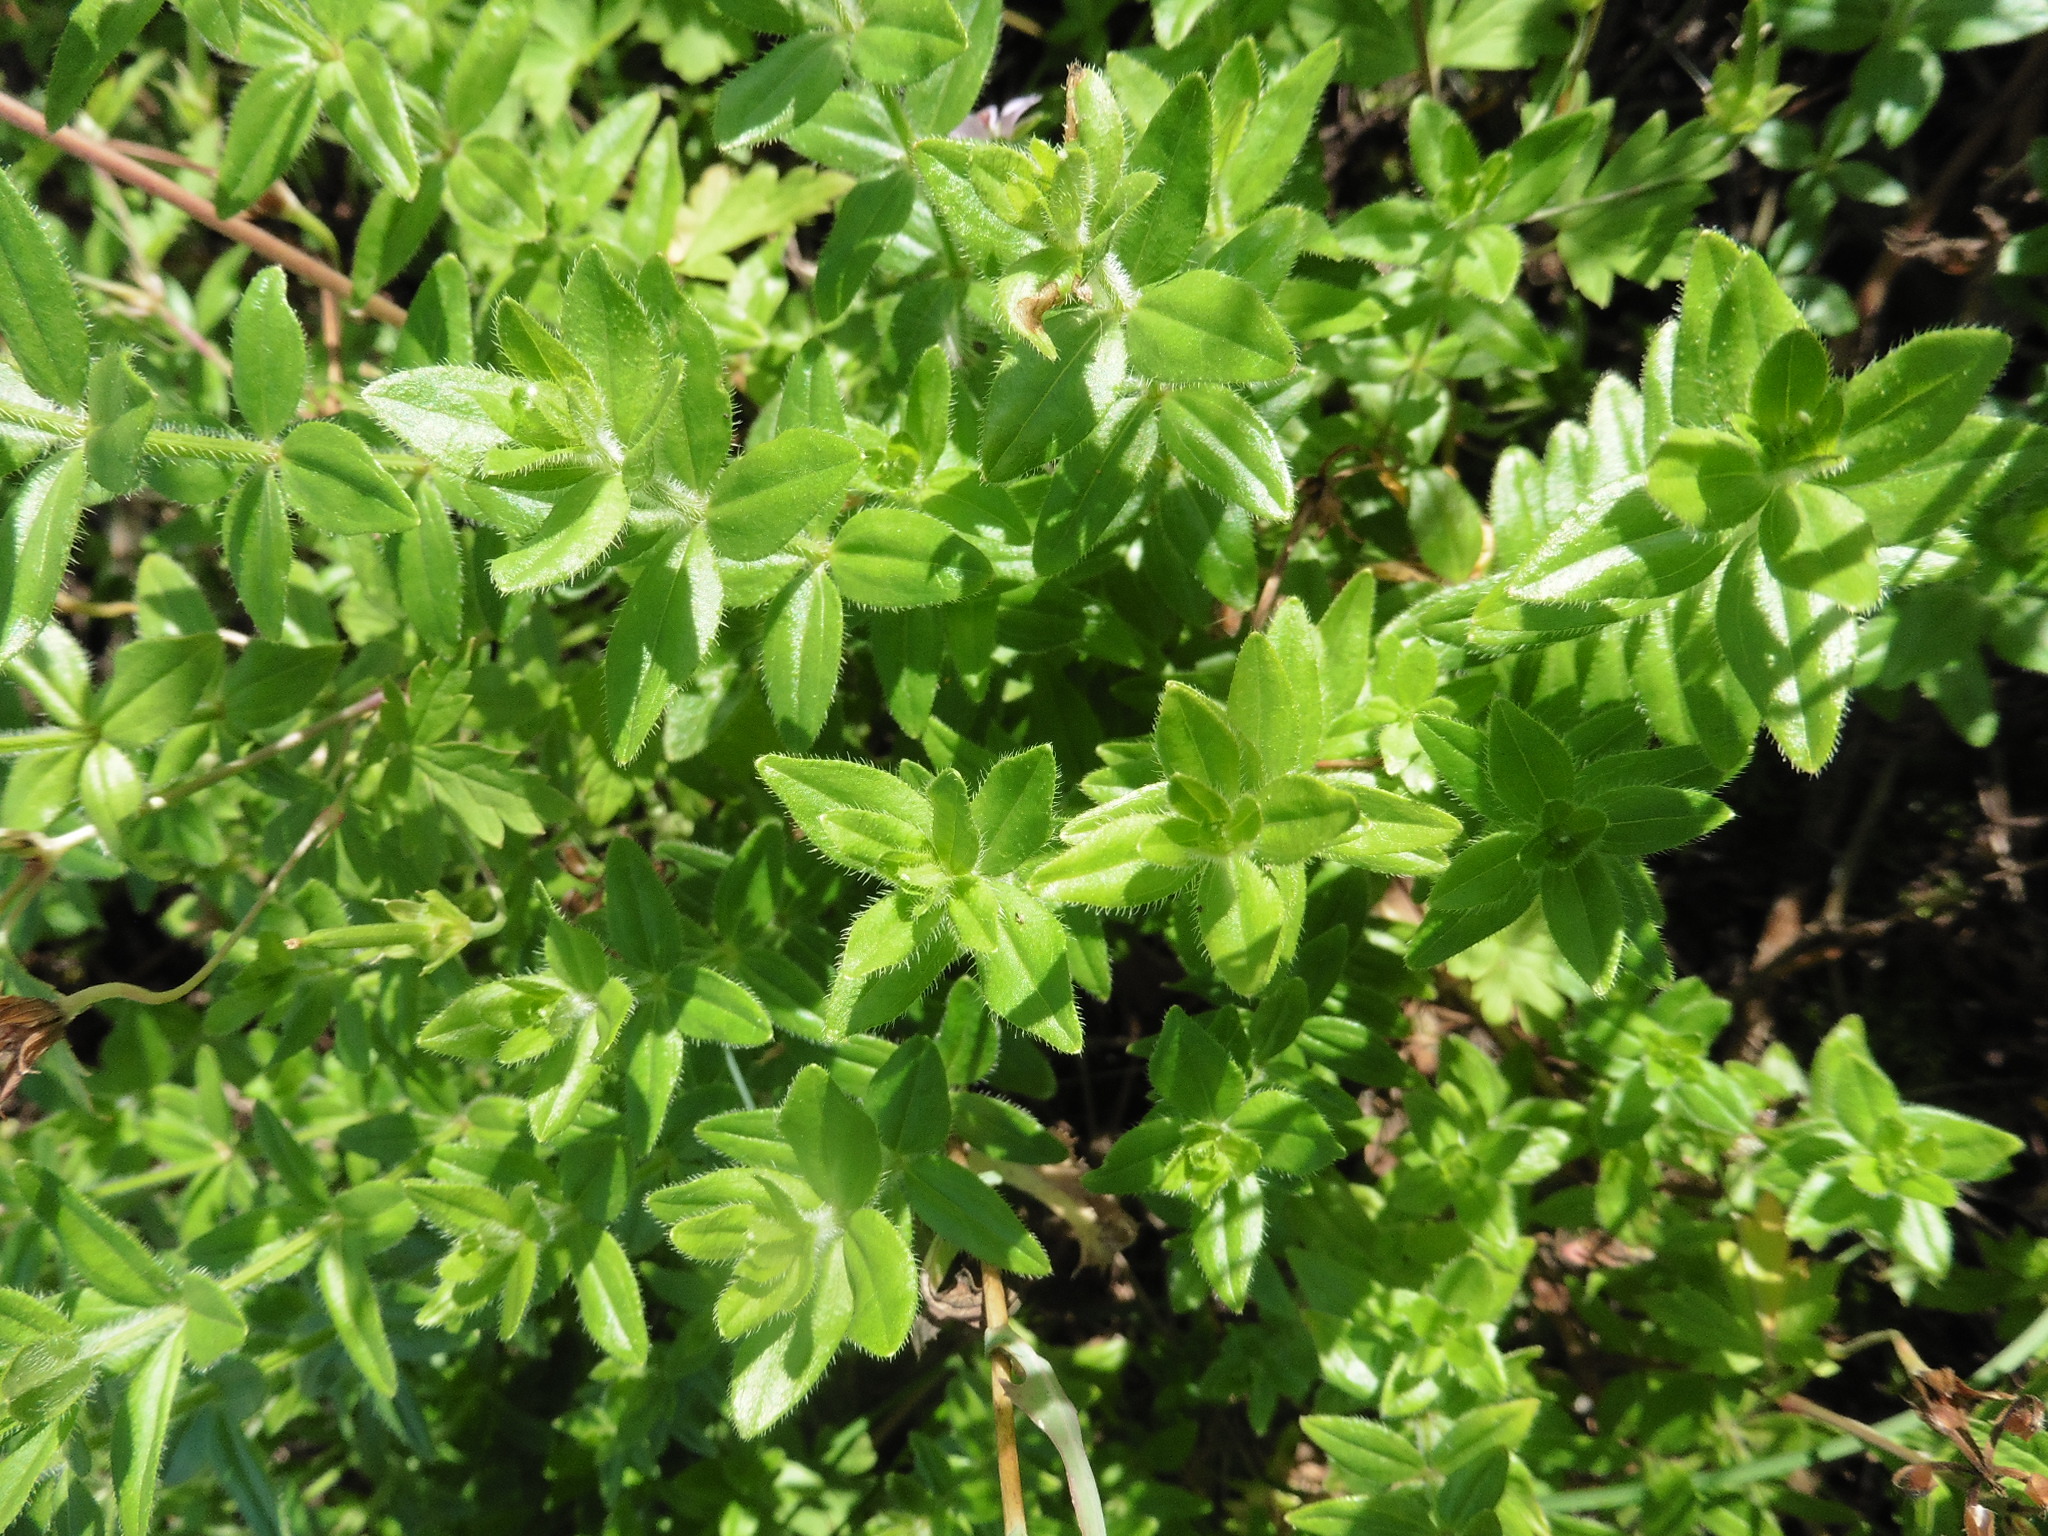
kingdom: Plantae
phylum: Tracheophyta
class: Magnoliopsida
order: Gentianales
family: Rubiaceae
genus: Cruciata
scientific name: Cruciata laevipes
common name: Crosswort
